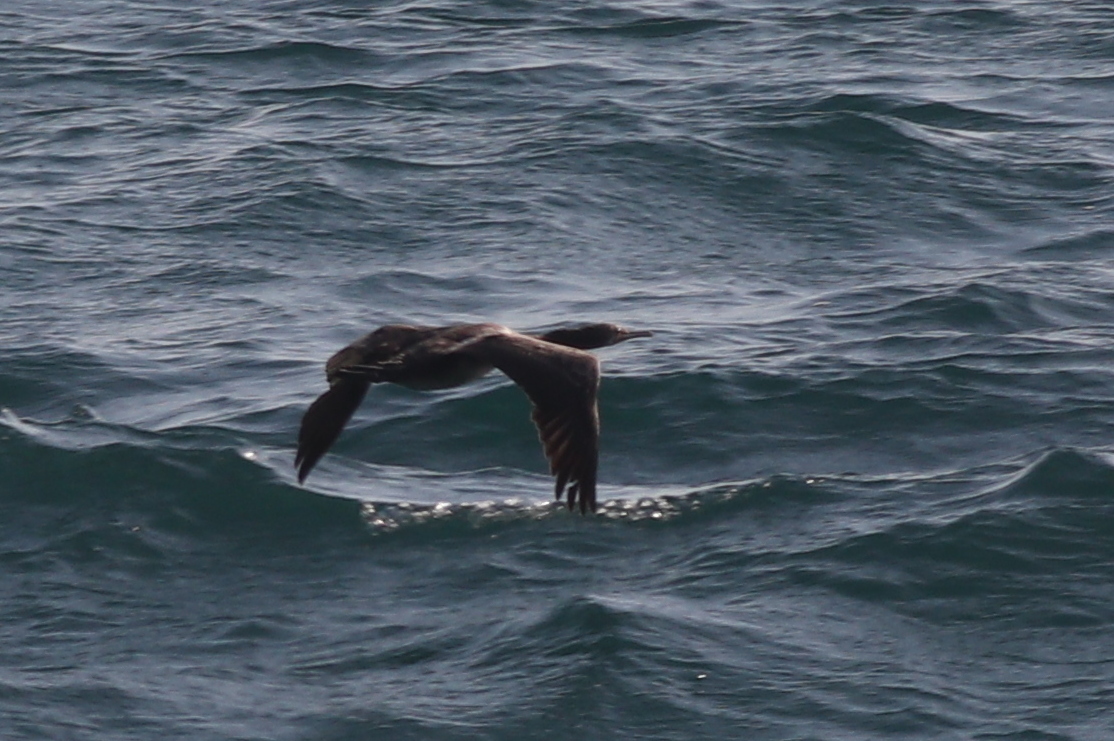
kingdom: Animalia
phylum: Chordata
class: Aves
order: Suliformes
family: Phalacrocoracidae
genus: Phalacrocorax
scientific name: Phalacrocorax nigrogularis
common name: Socotra cormorant
